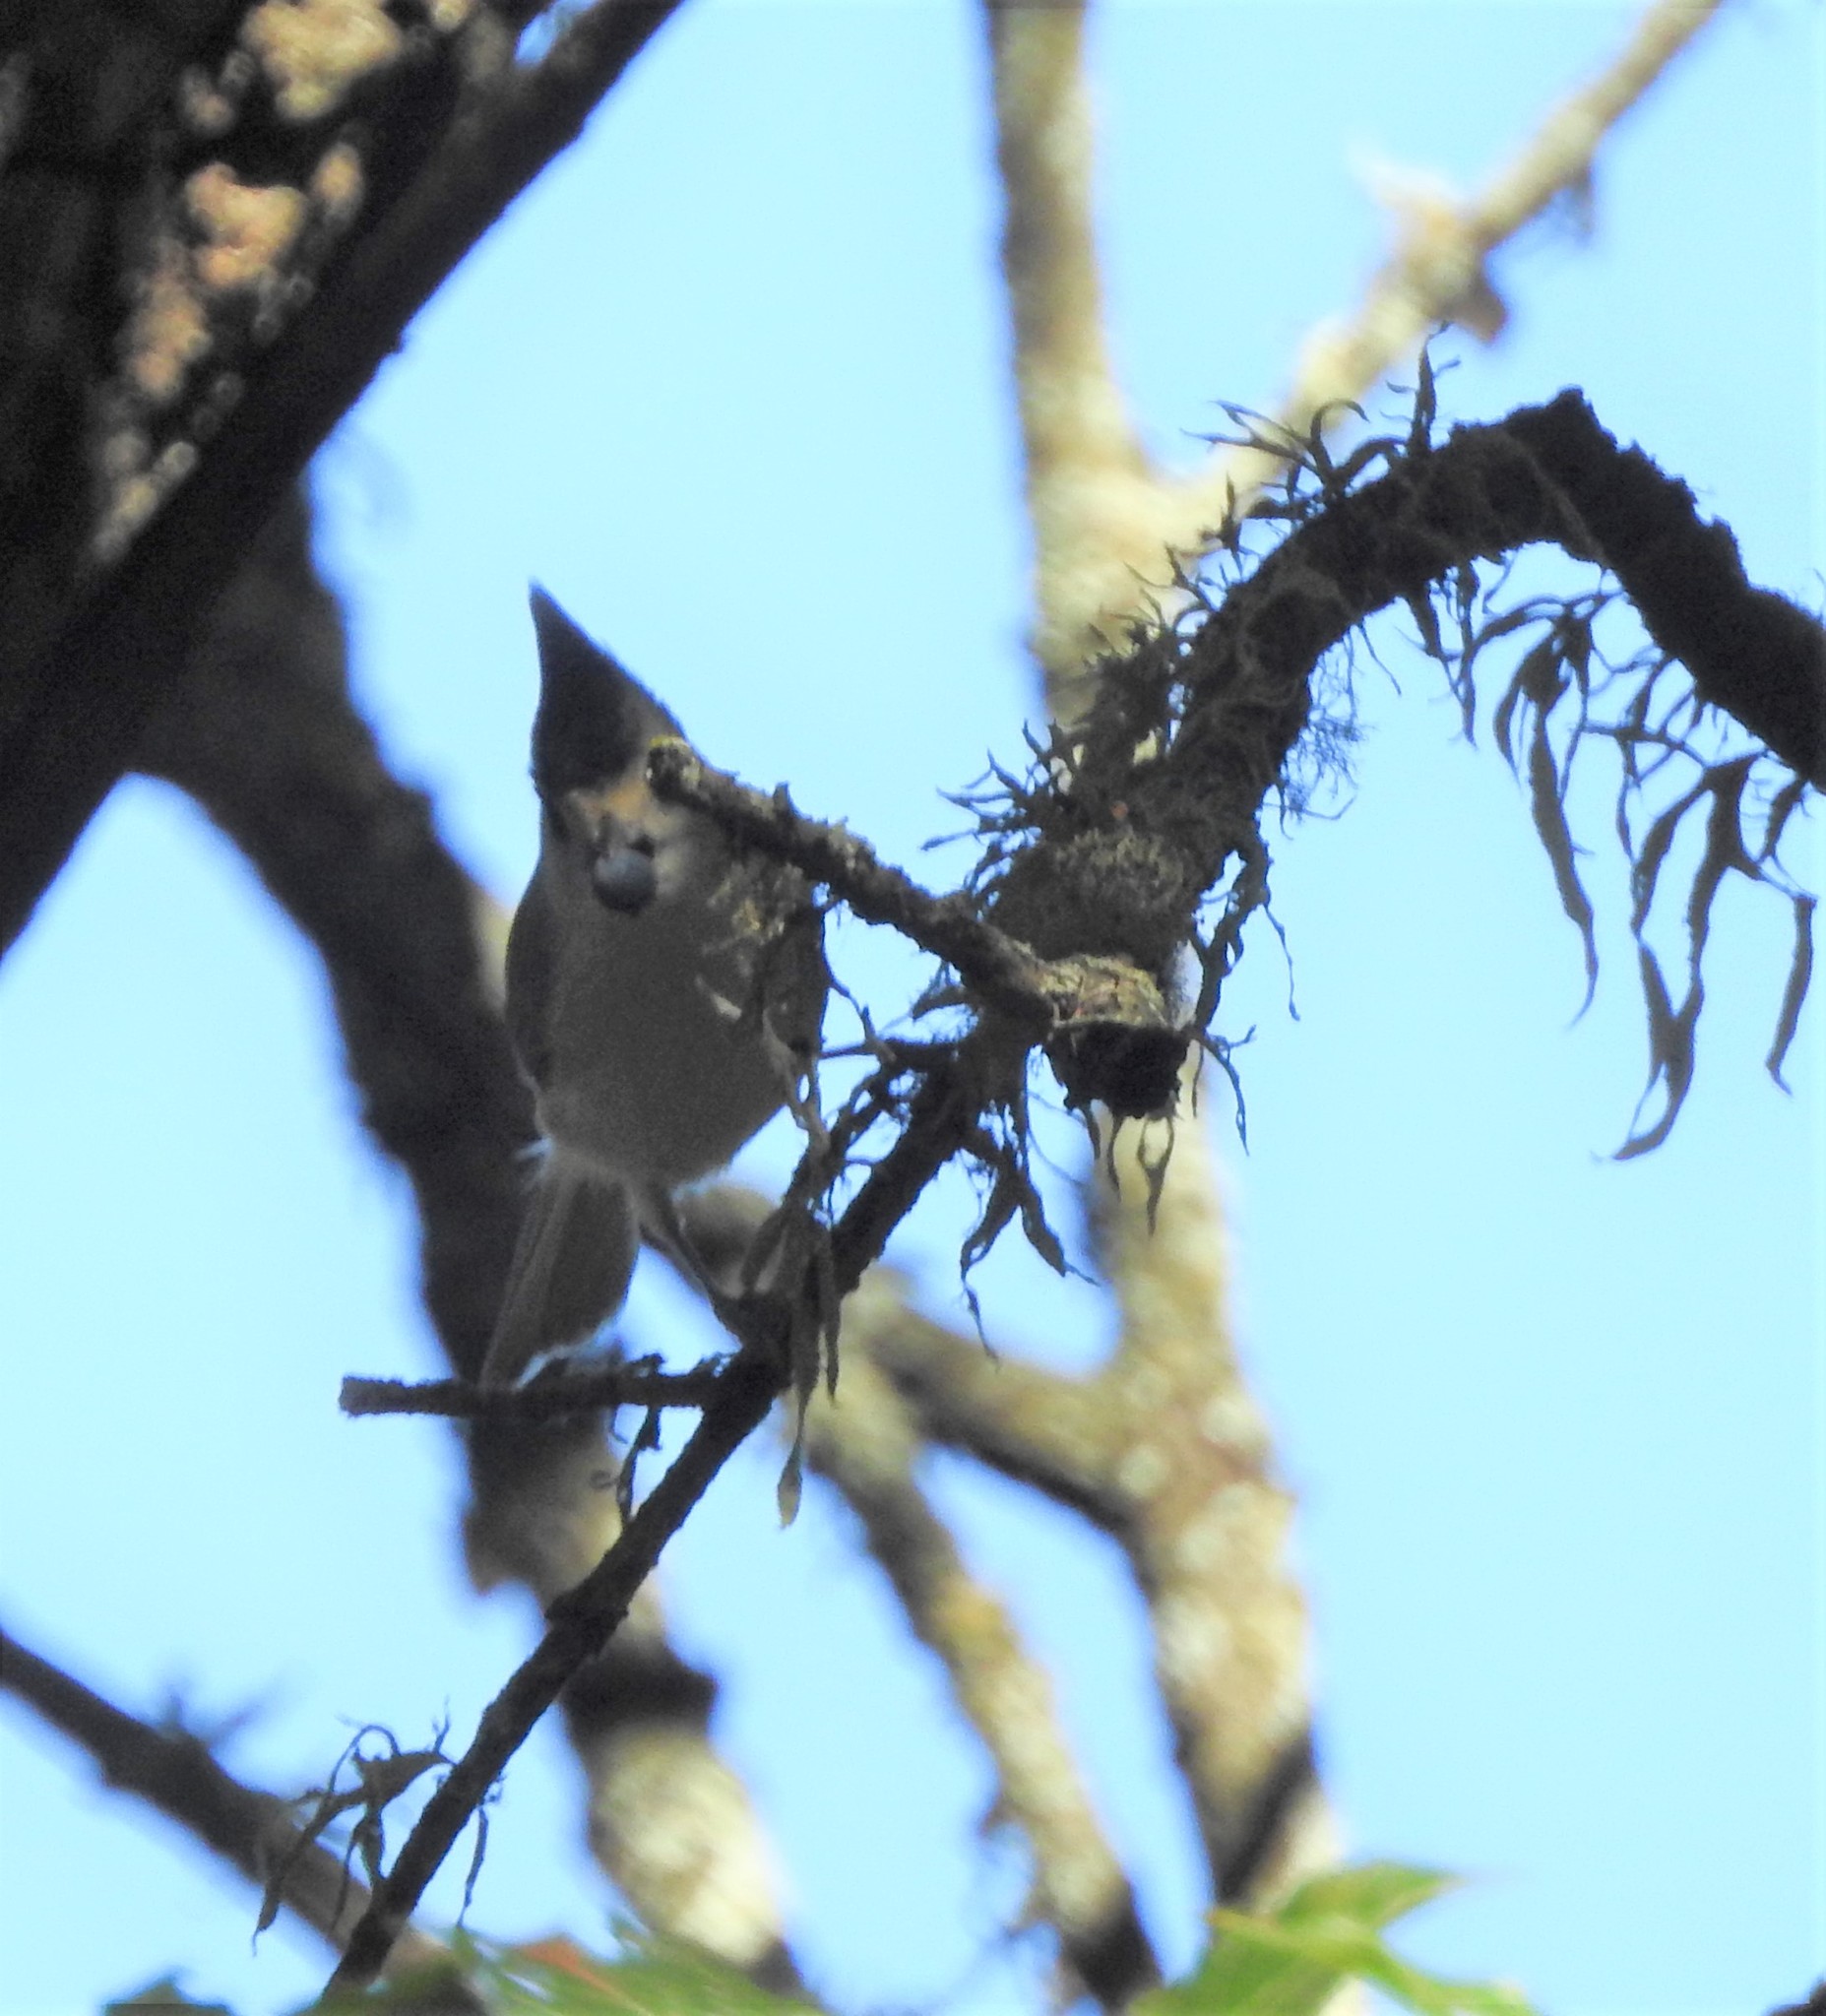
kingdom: Animalia
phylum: Chordata
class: Aves
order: Passeriformes
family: Paridae
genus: Baeolophus
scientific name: Baeolophus atricristatus
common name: Black-crested titmouse
